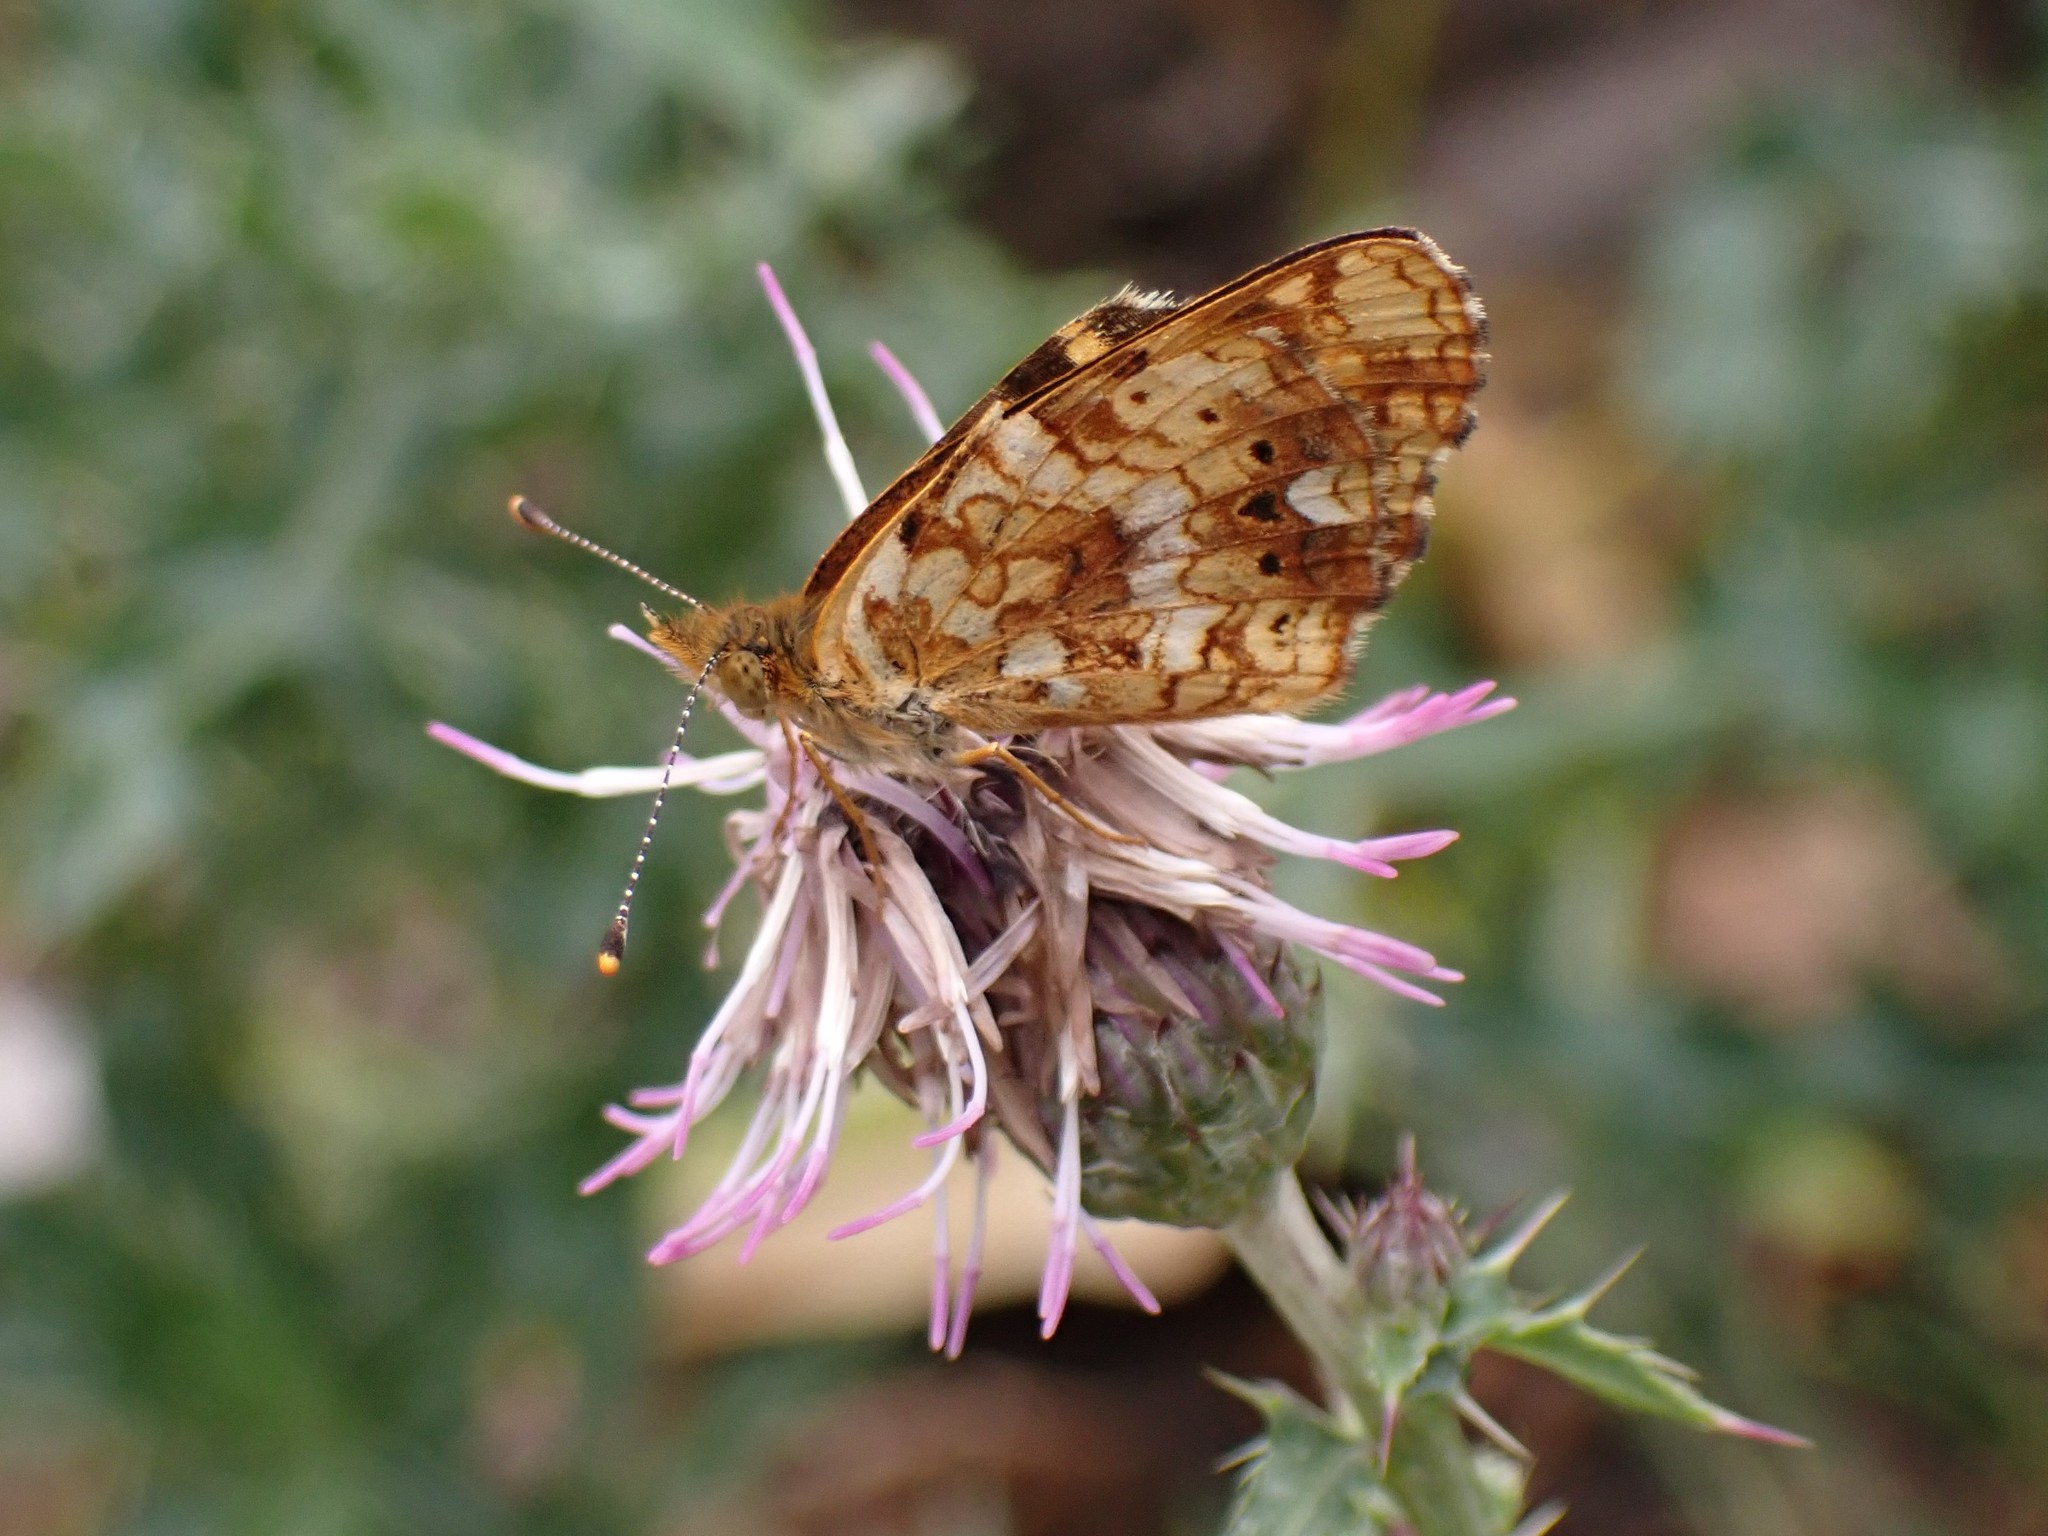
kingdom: Animalia
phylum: Arthropoda
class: Insecta
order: Lepidoptera
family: Nymphalidae
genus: Eresia
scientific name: Eresia aveyrona
